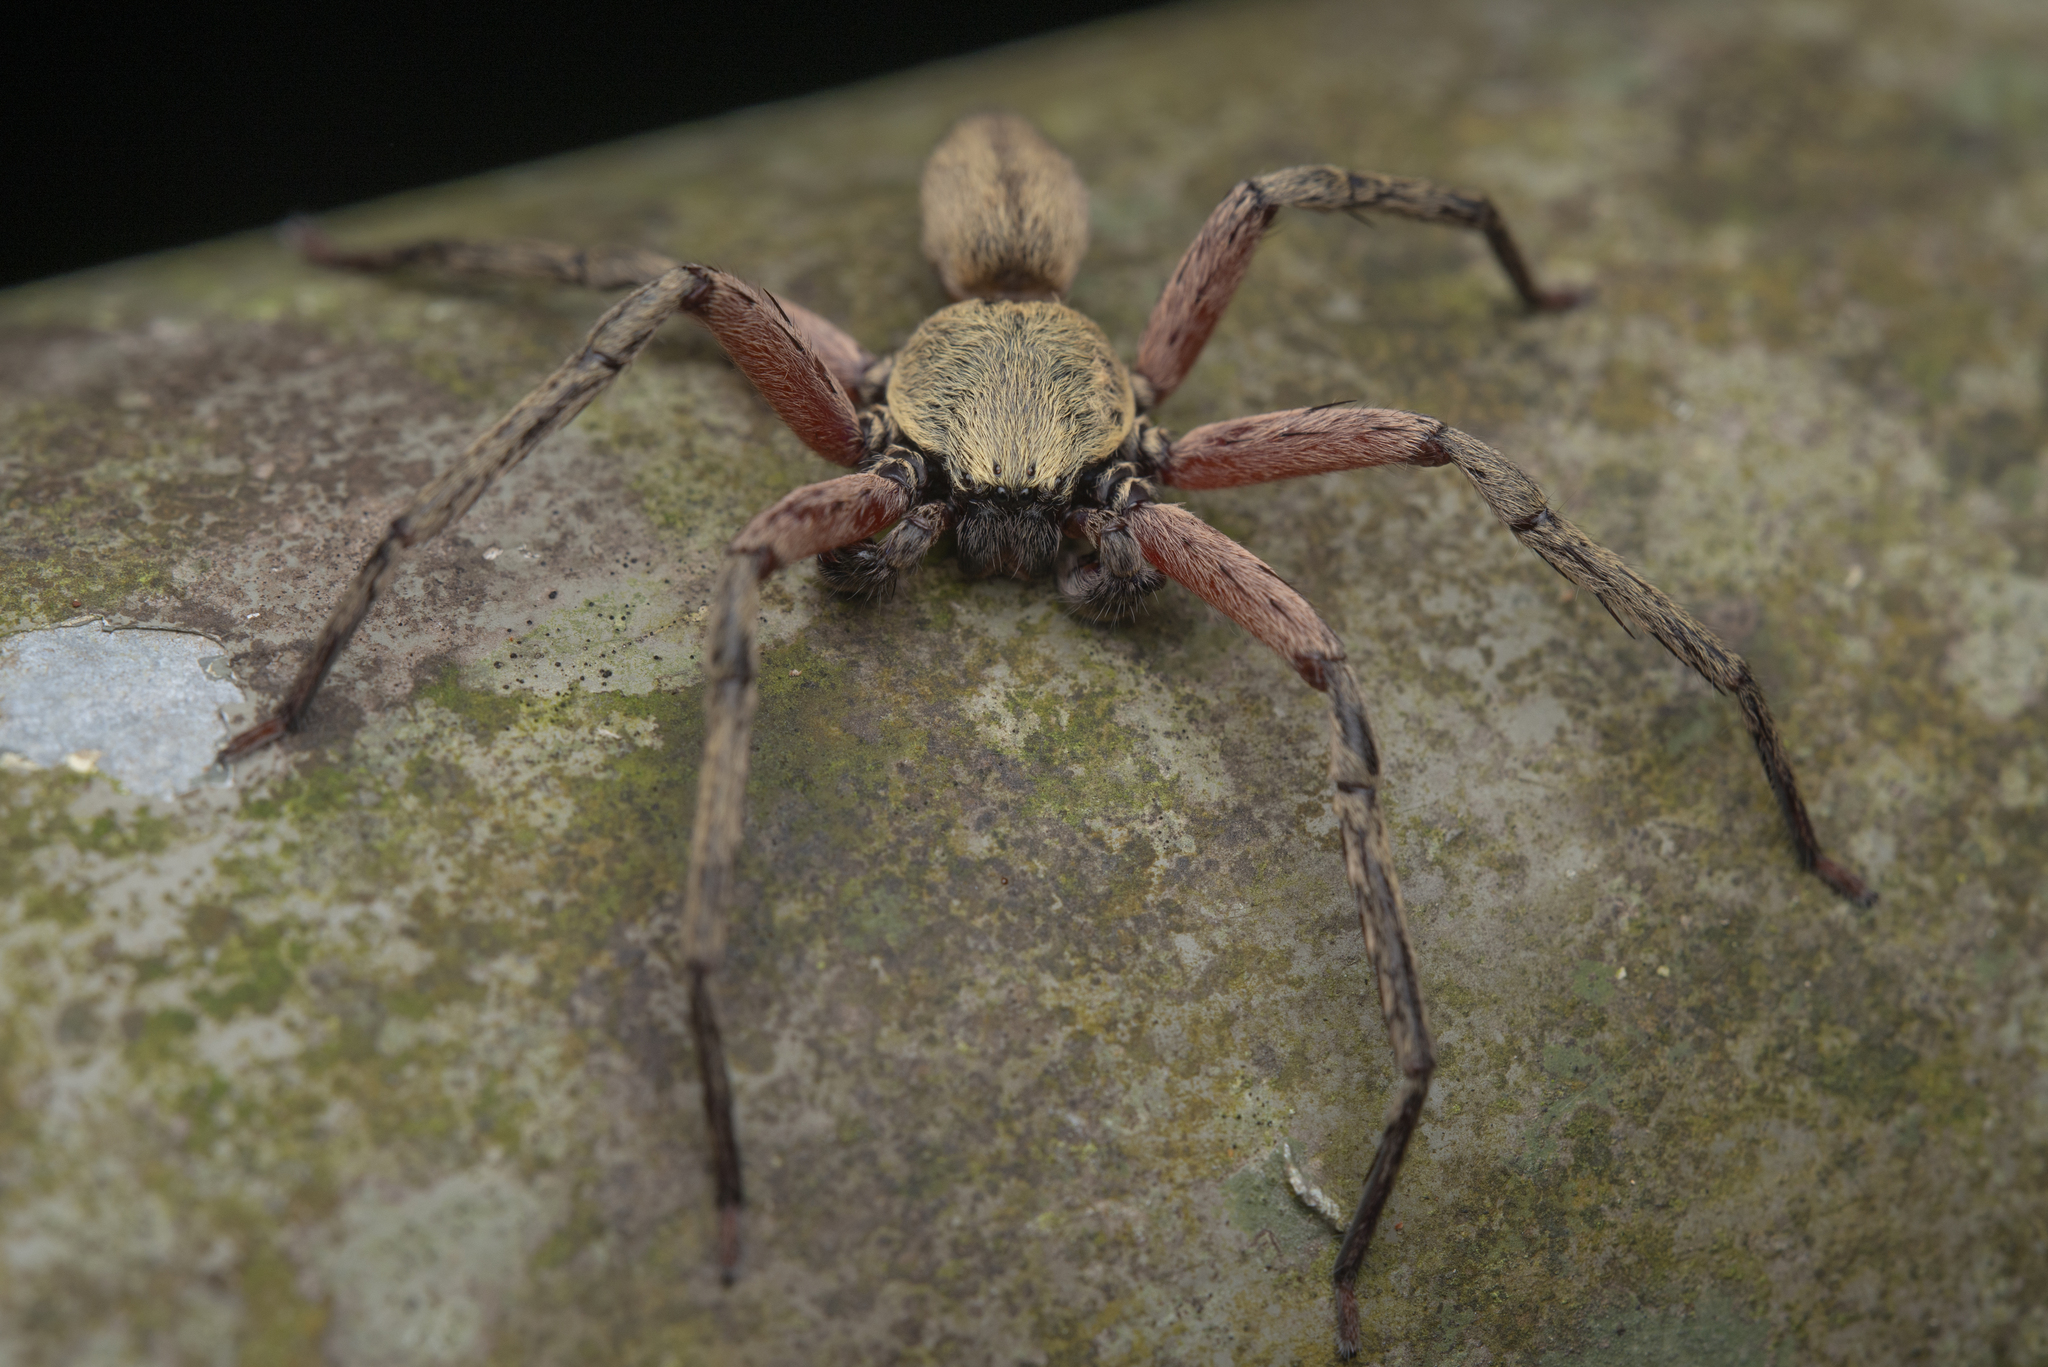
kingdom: Animalia
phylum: Arthropoda
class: Arachnida
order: Araneae
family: Sparassidae
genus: Thelcticopis
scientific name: Thelcticopis severa
